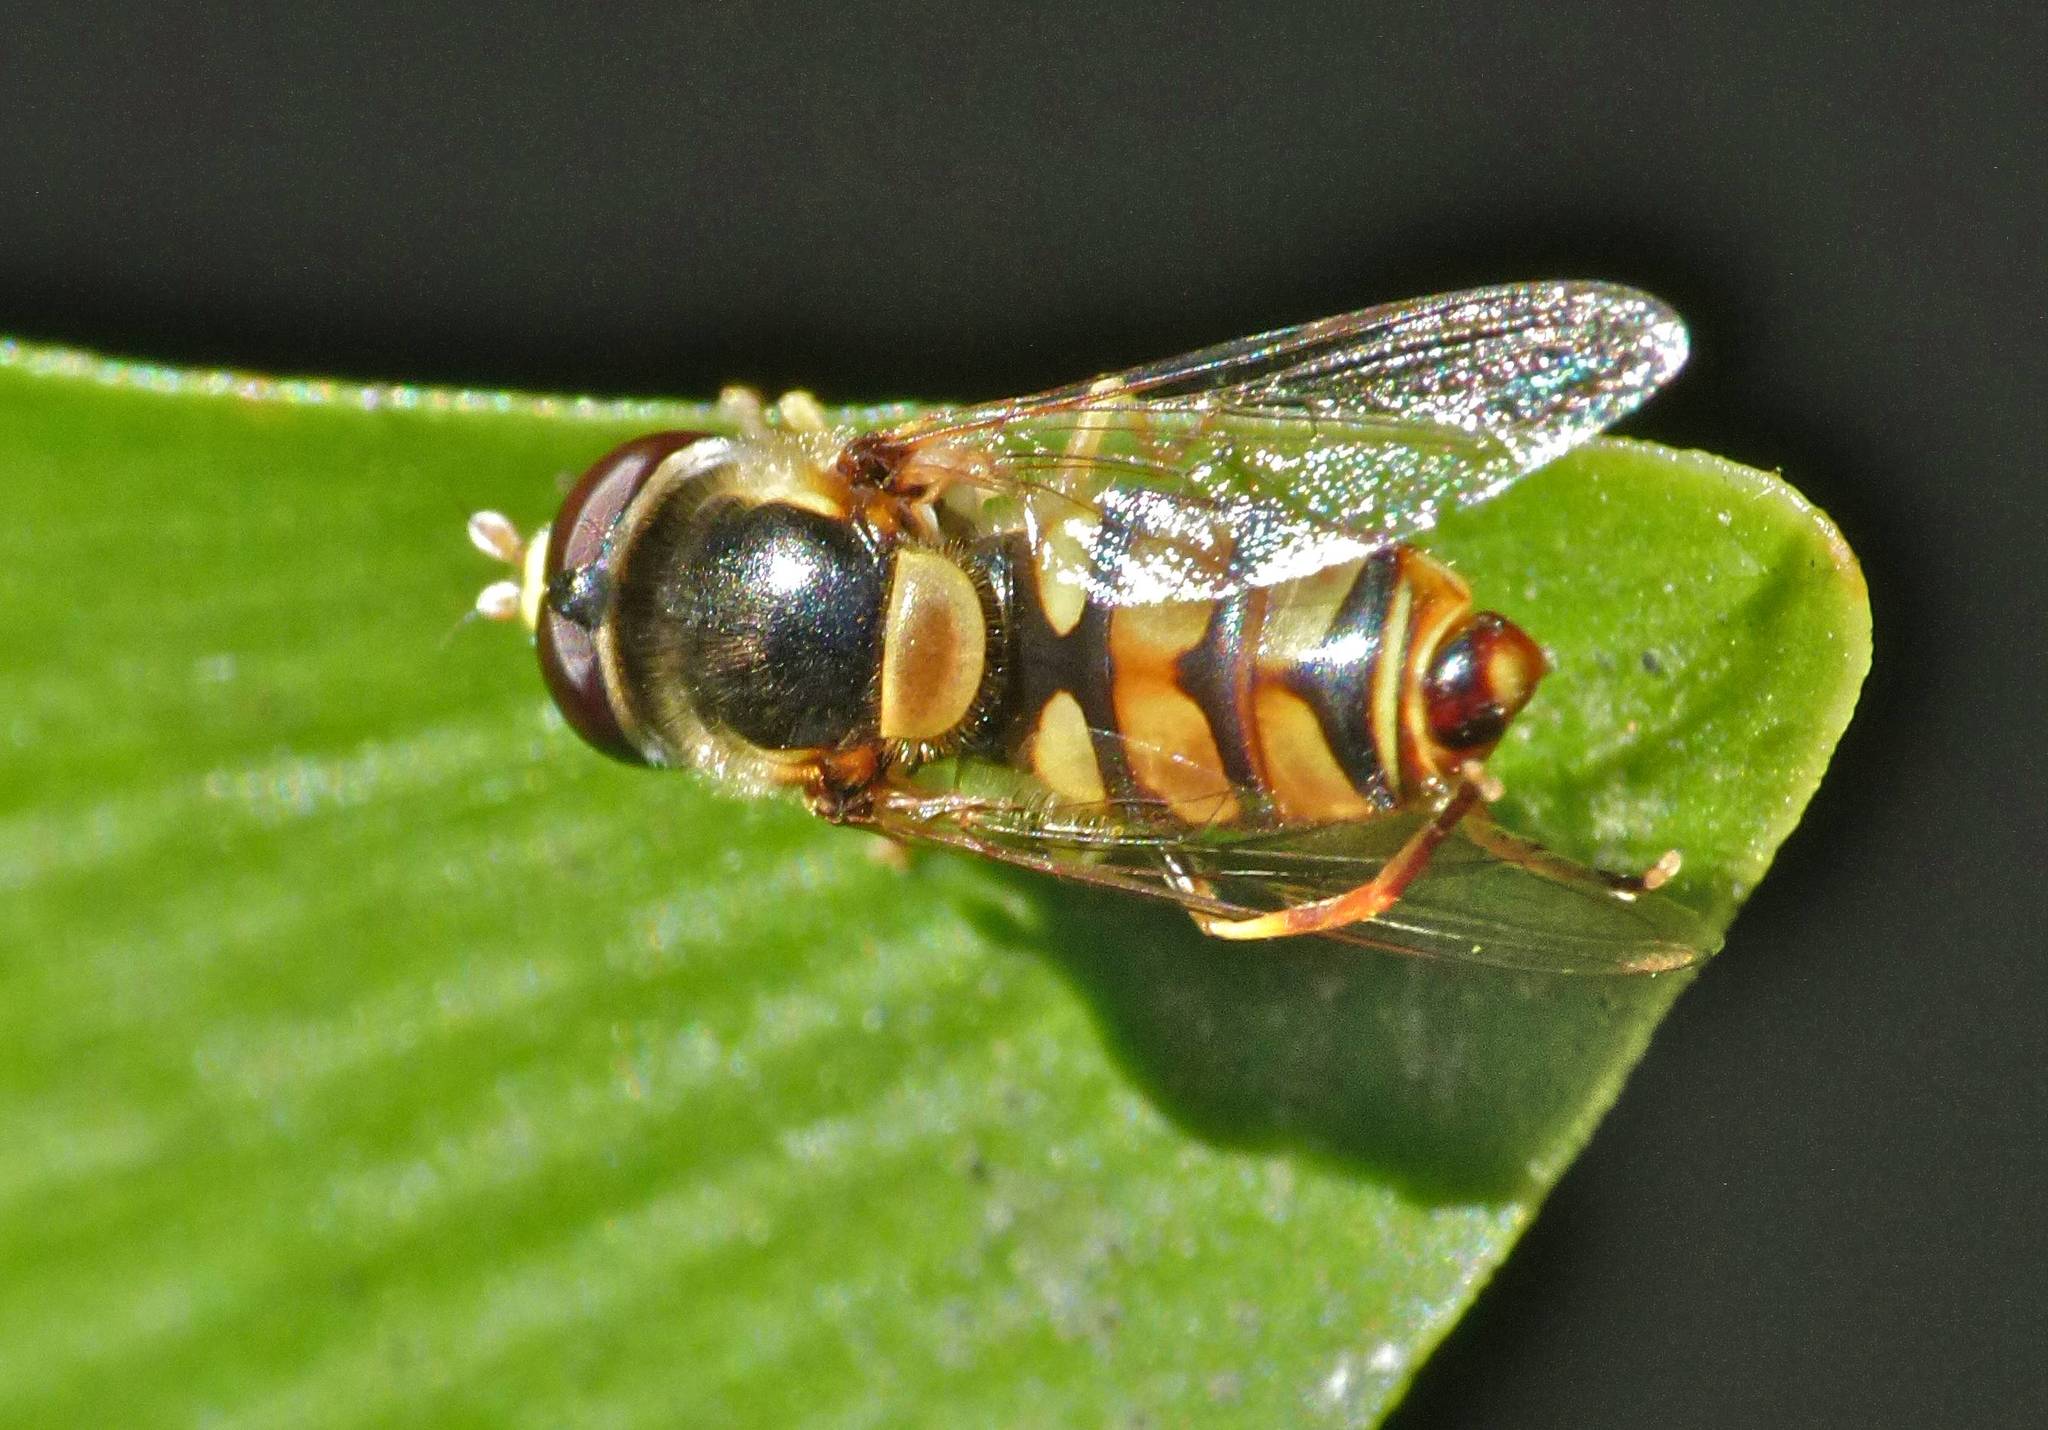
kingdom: Animalia
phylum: Arthropoda
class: Insecta
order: Diptera
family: Syrphidae
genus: Simosyrphus
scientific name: Simosyrphus grandicornis
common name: Hoverfly
